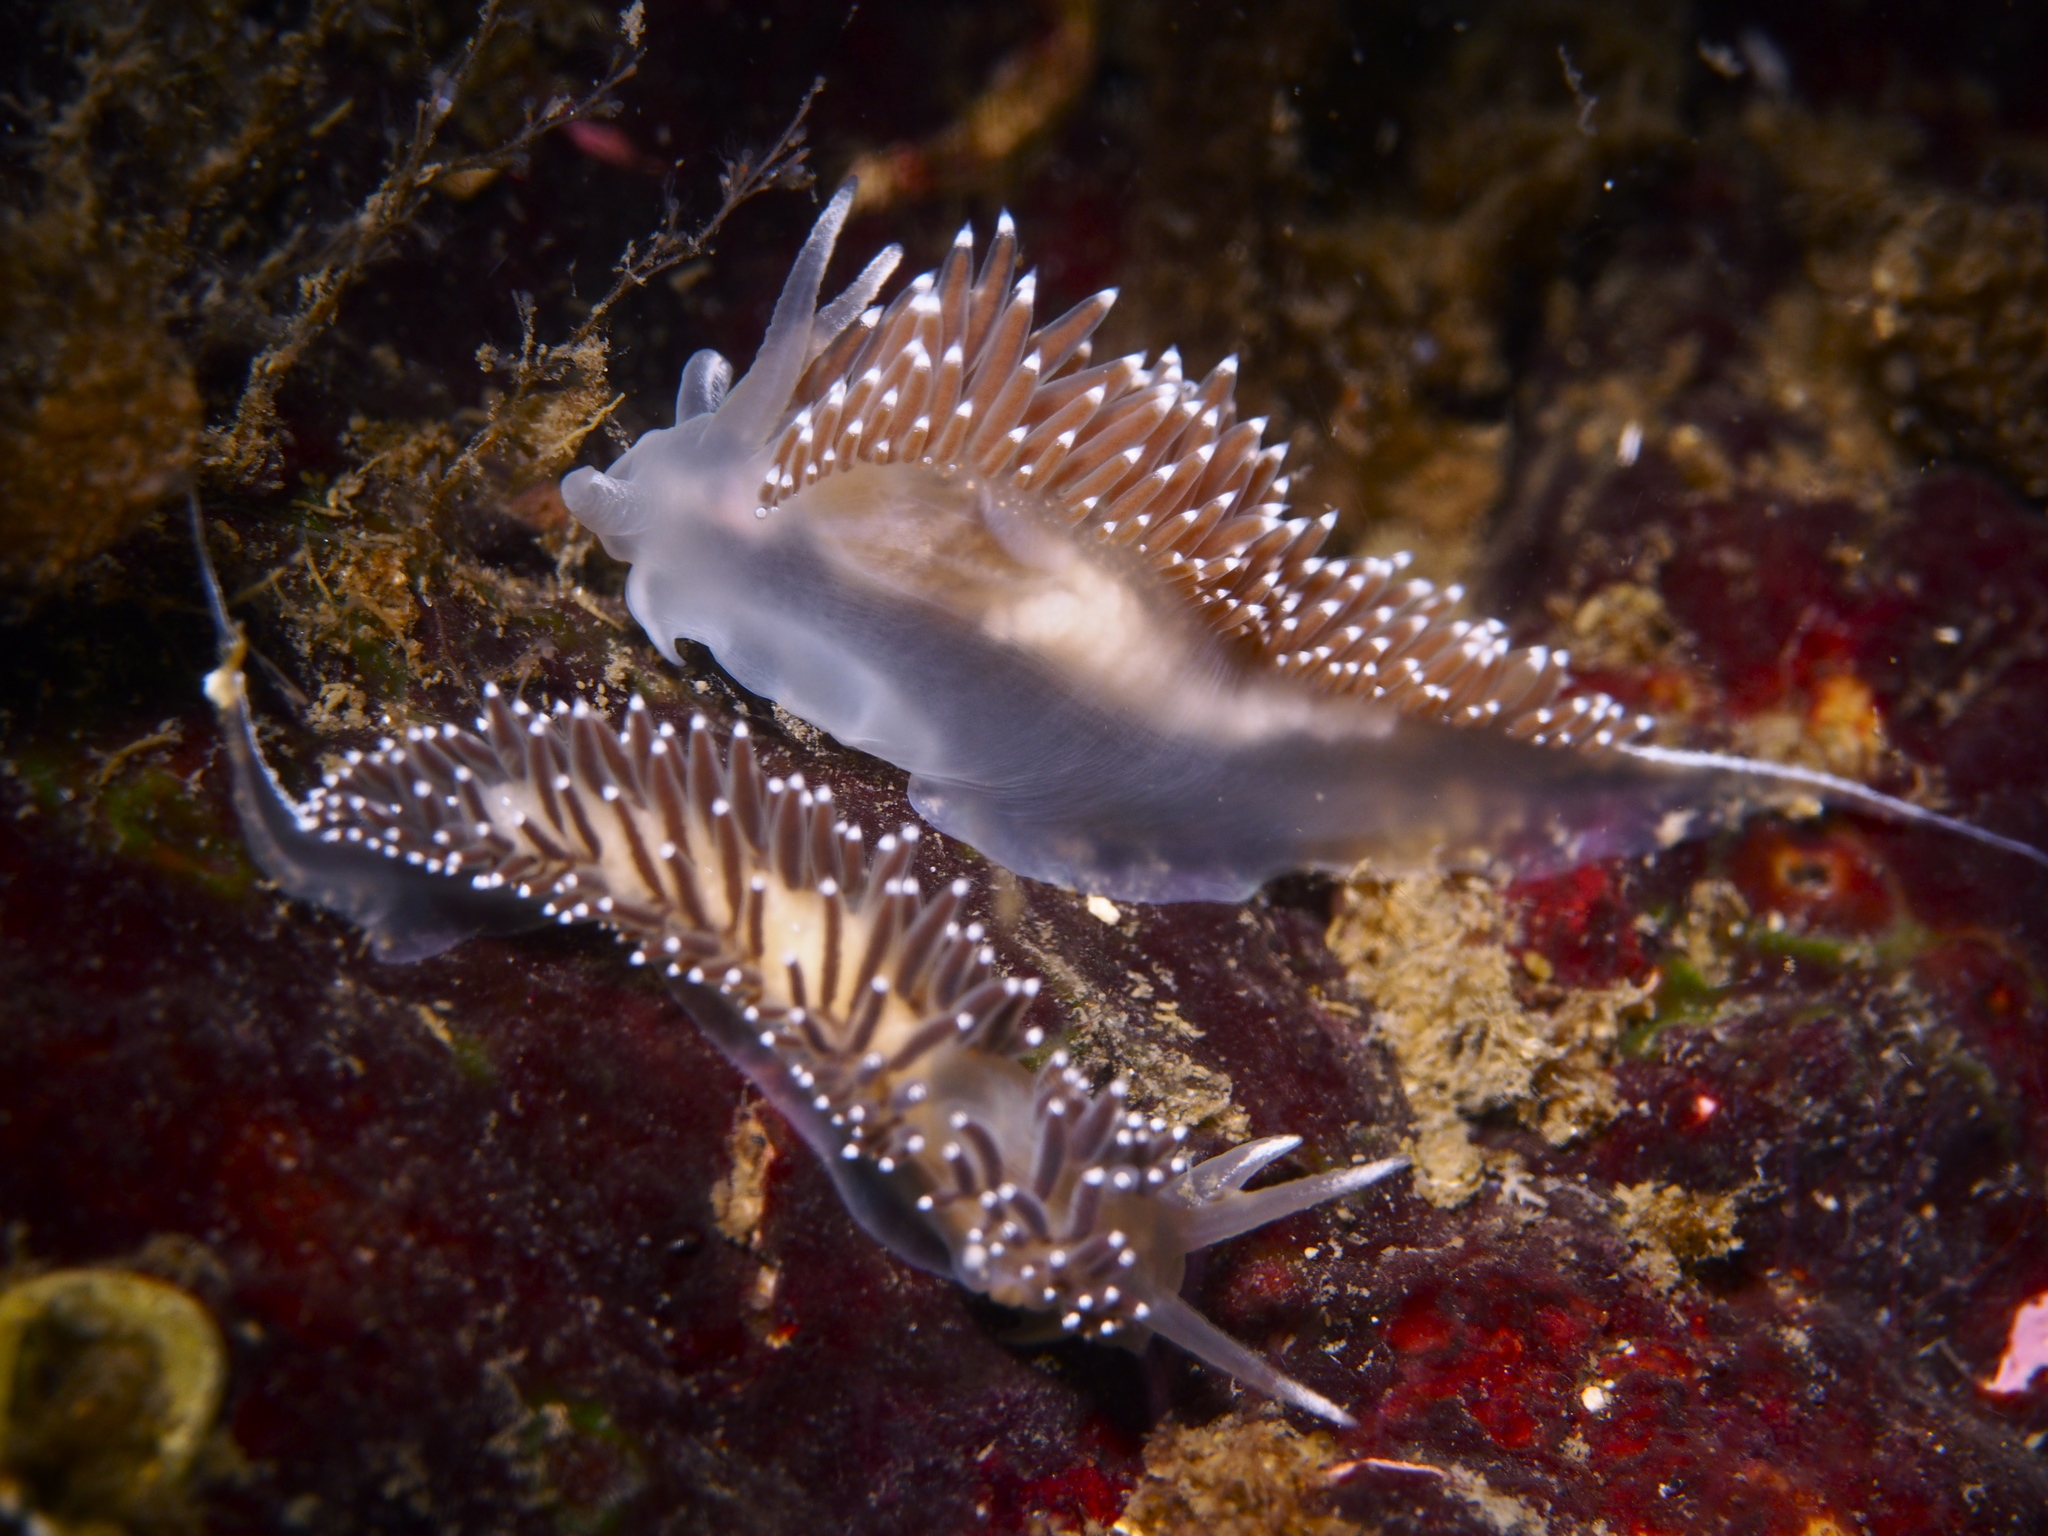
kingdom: Animalia
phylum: Mollusca
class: Gastropoda
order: Nudibranchia
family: Coryphellidae
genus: Coryphella
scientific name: Coryphella verrucosa
